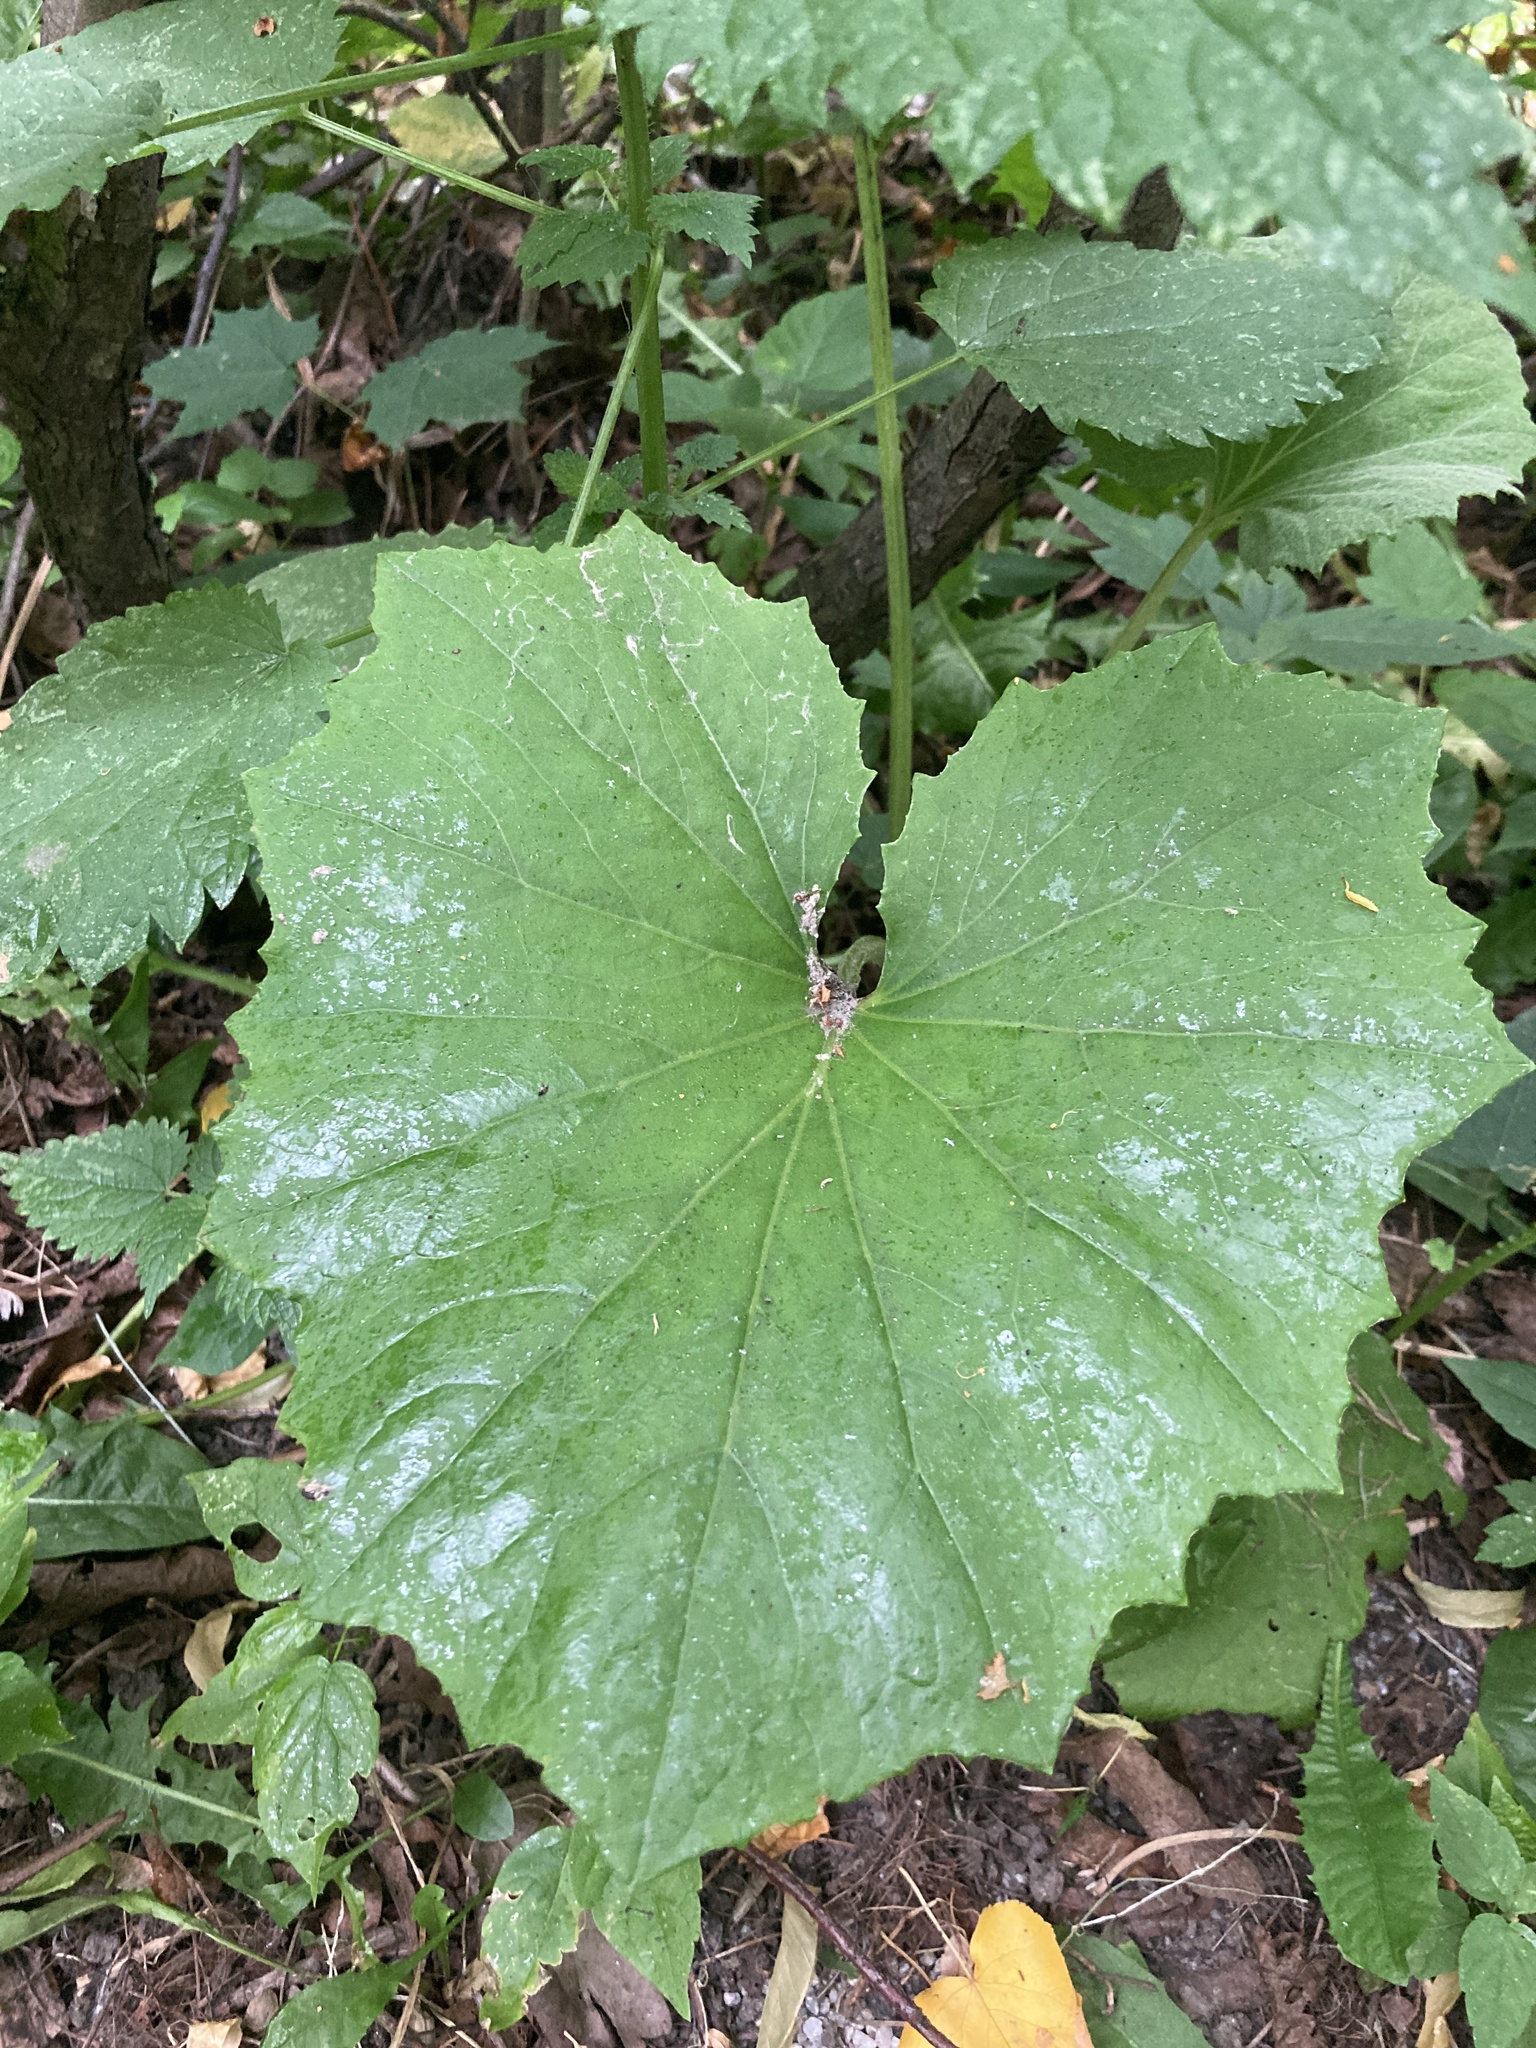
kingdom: Plantae
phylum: Tracheophyta
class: Magnoliopsida
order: Asterales
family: Asteraceae
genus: Tussilago
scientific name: Tussilago farfara
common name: Coltsfoot
